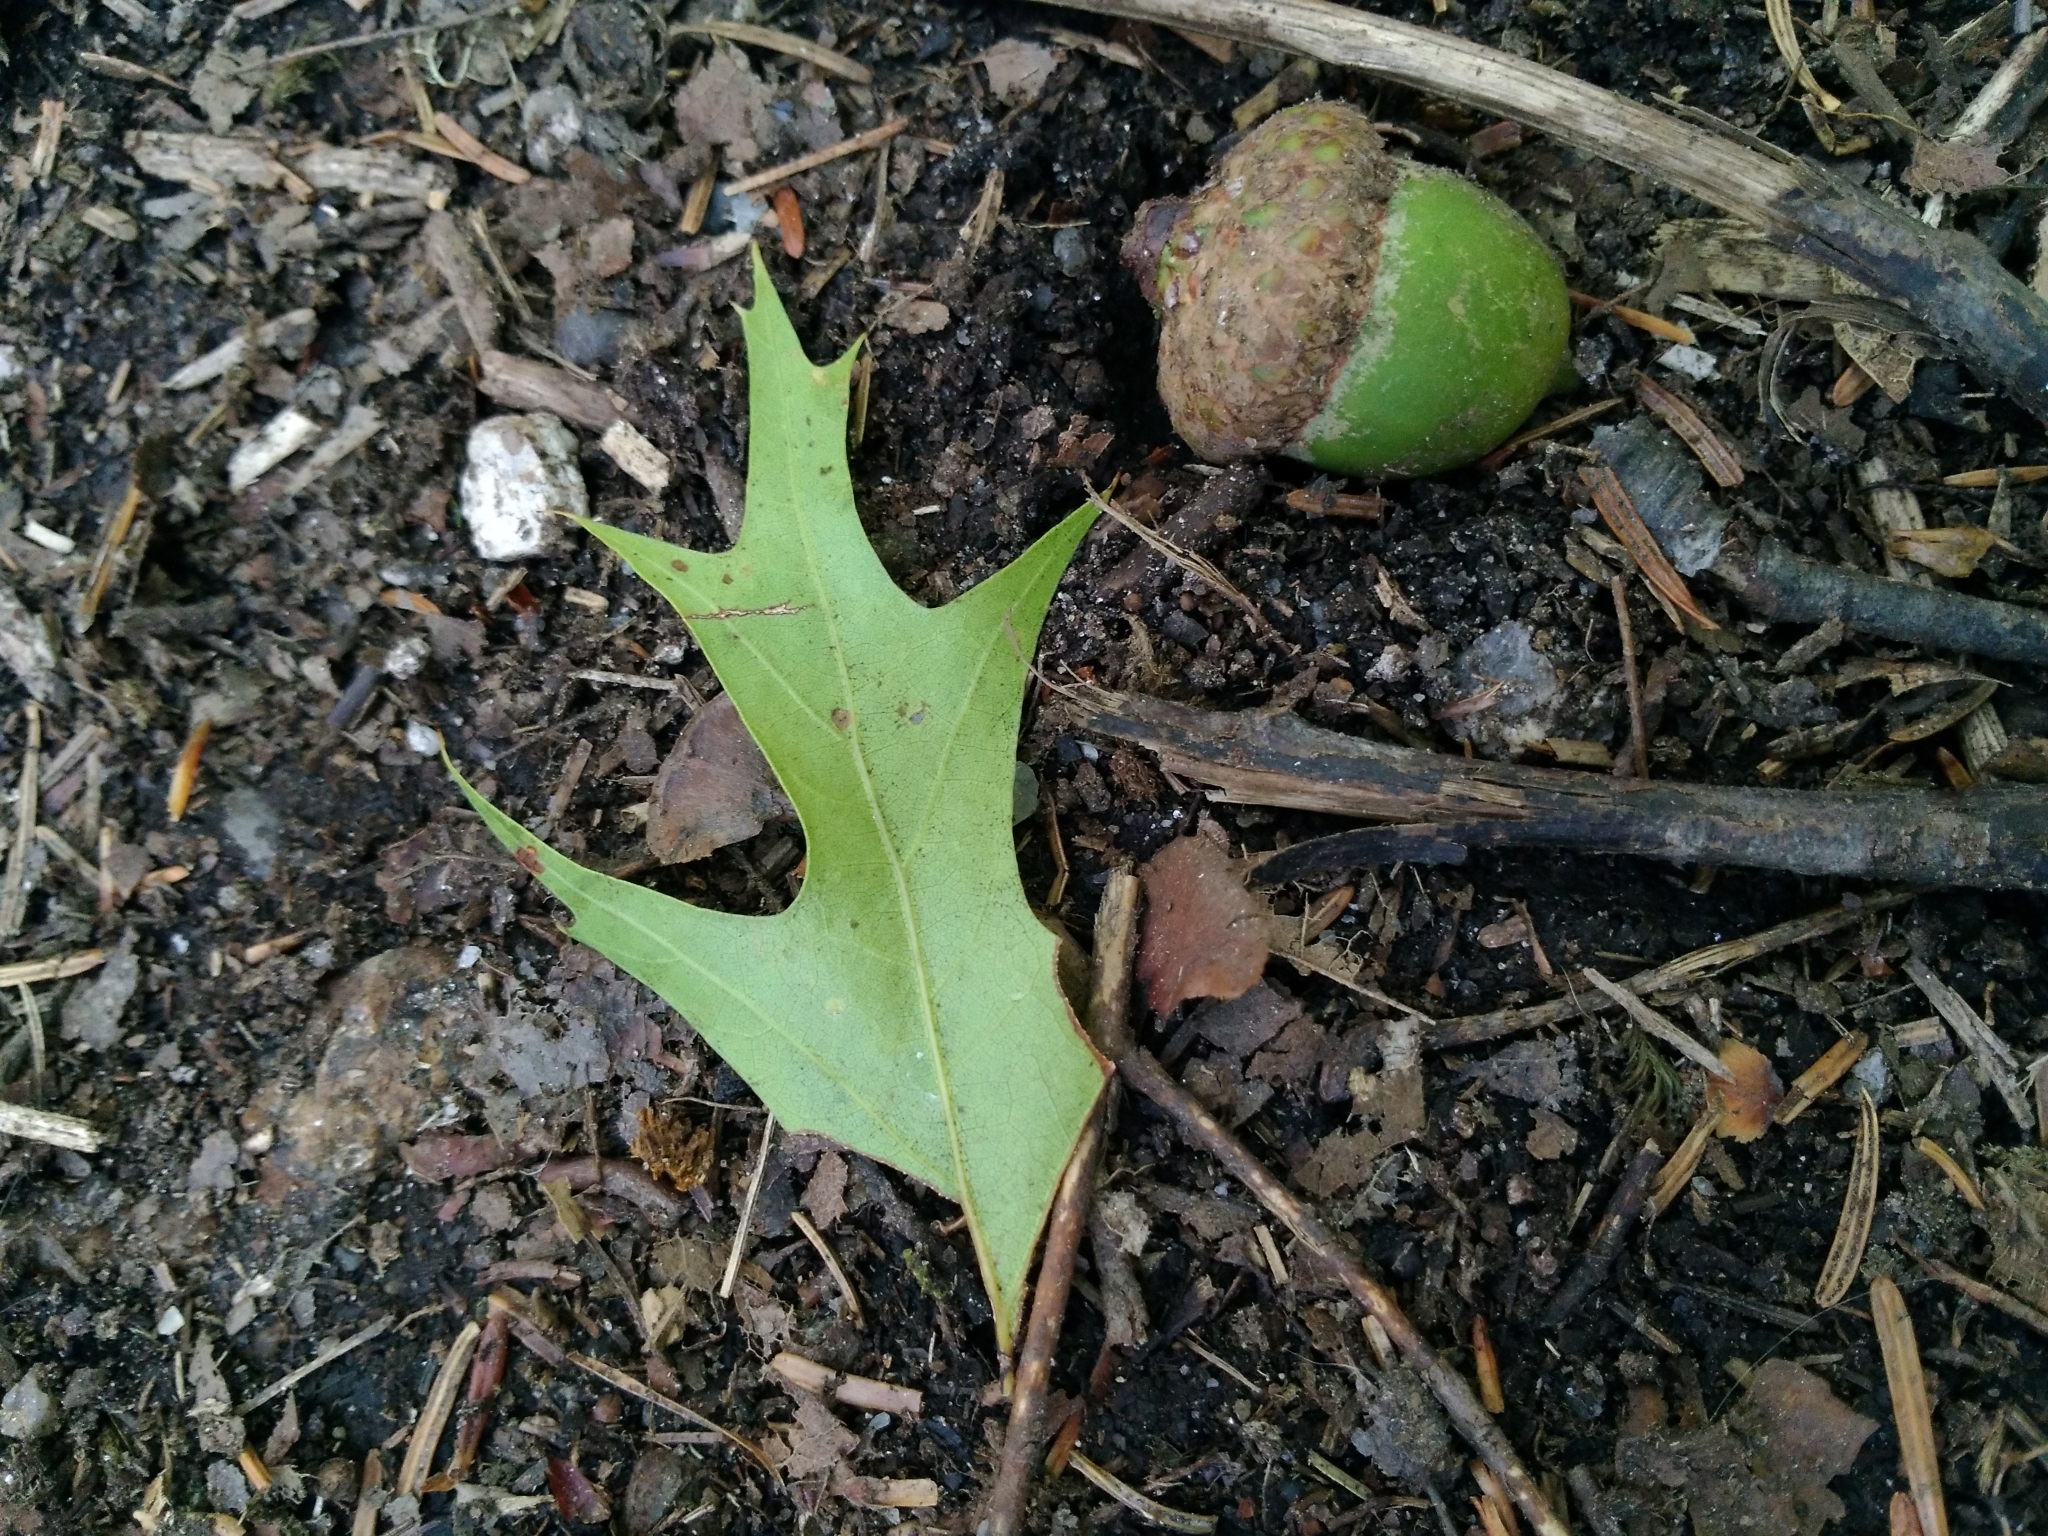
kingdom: Plantae
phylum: Tracheophyta
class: Magnoliopsida
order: Fagales
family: Fagaceae
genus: Quercus
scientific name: Quercus rubra
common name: Red oak
